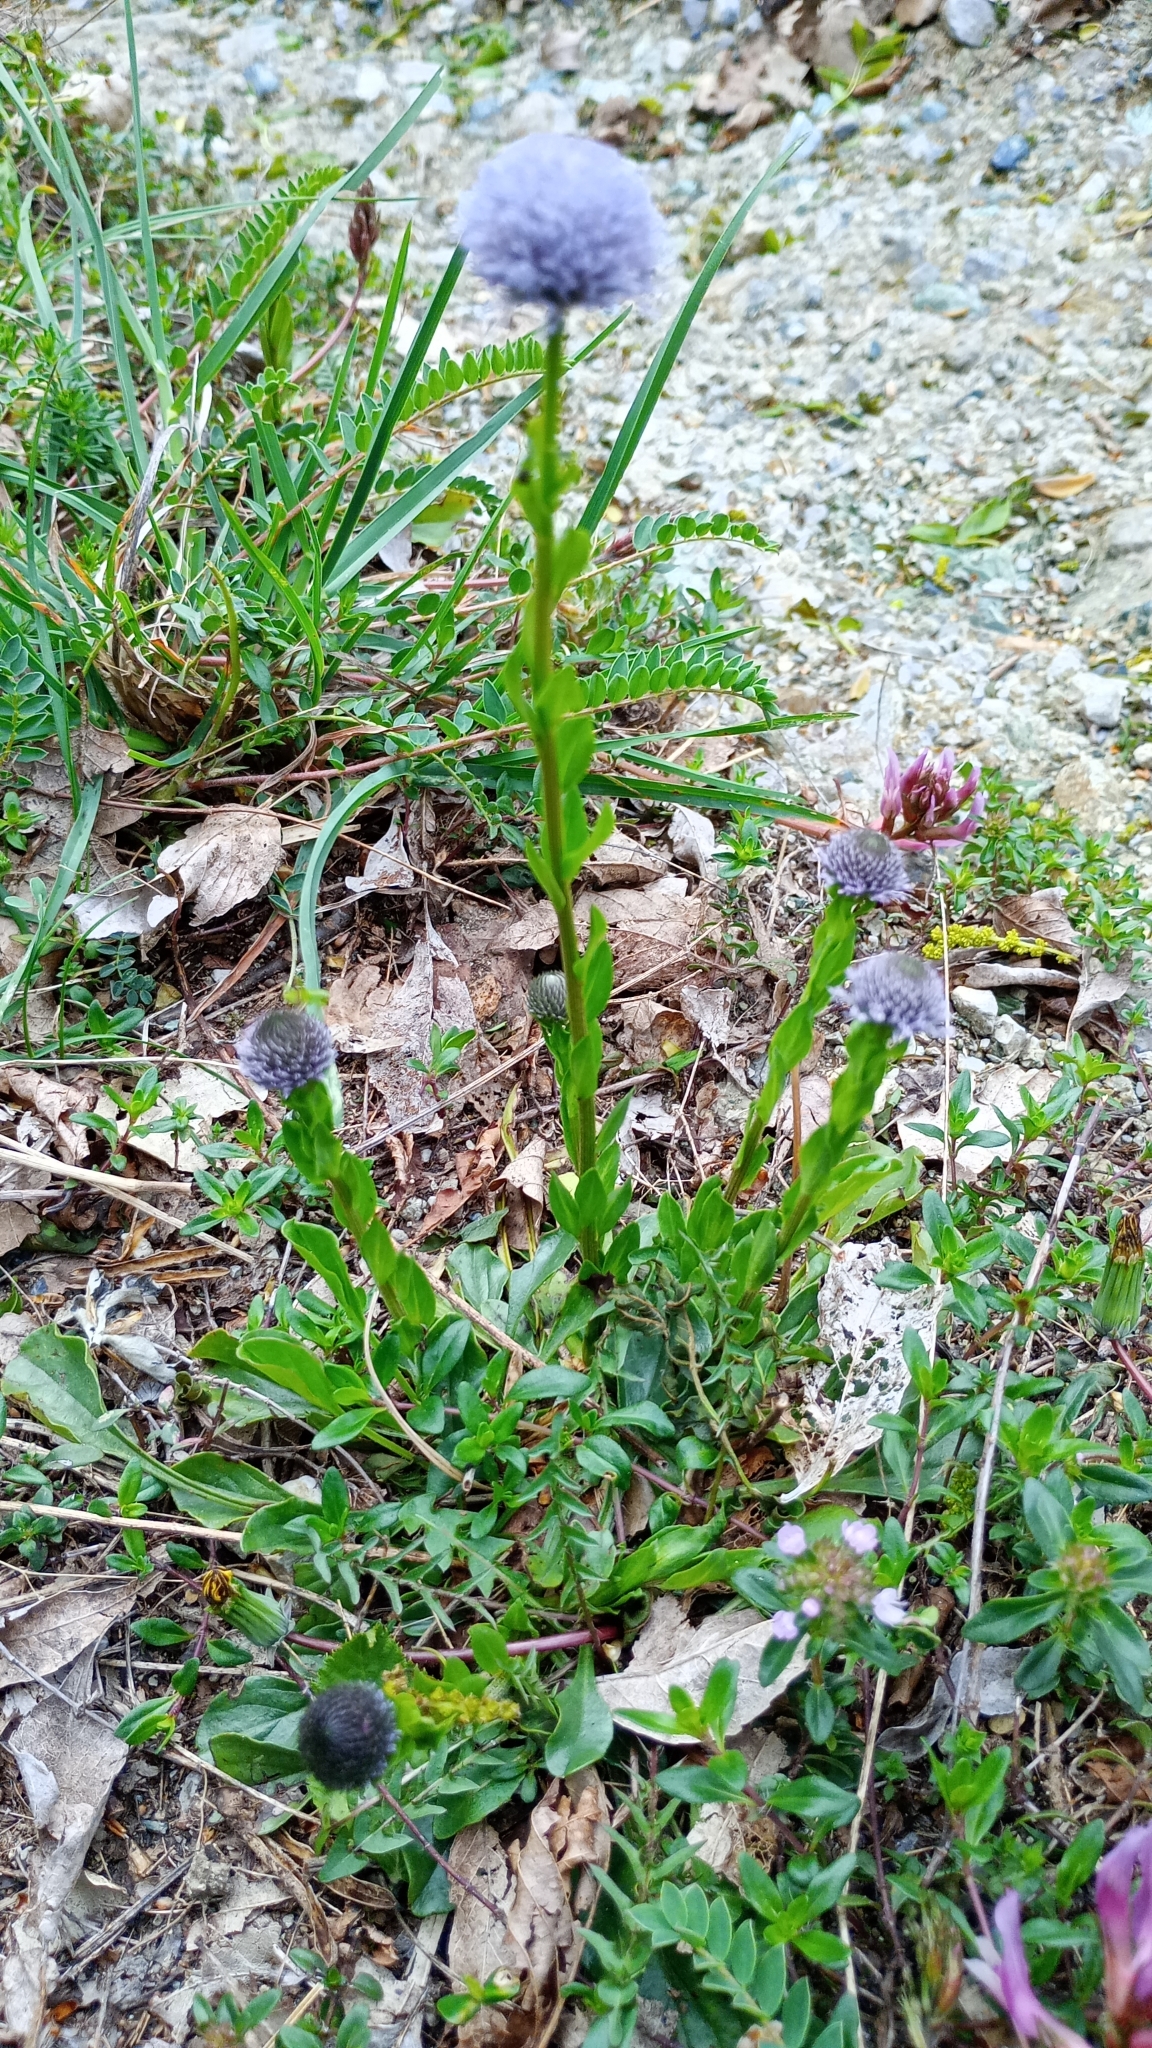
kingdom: Plantae
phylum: Tracheophyta
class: Magnoliopsida
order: Lamiales
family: Plantaginaceae
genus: Globularia
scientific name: Globularia bisnagarica
